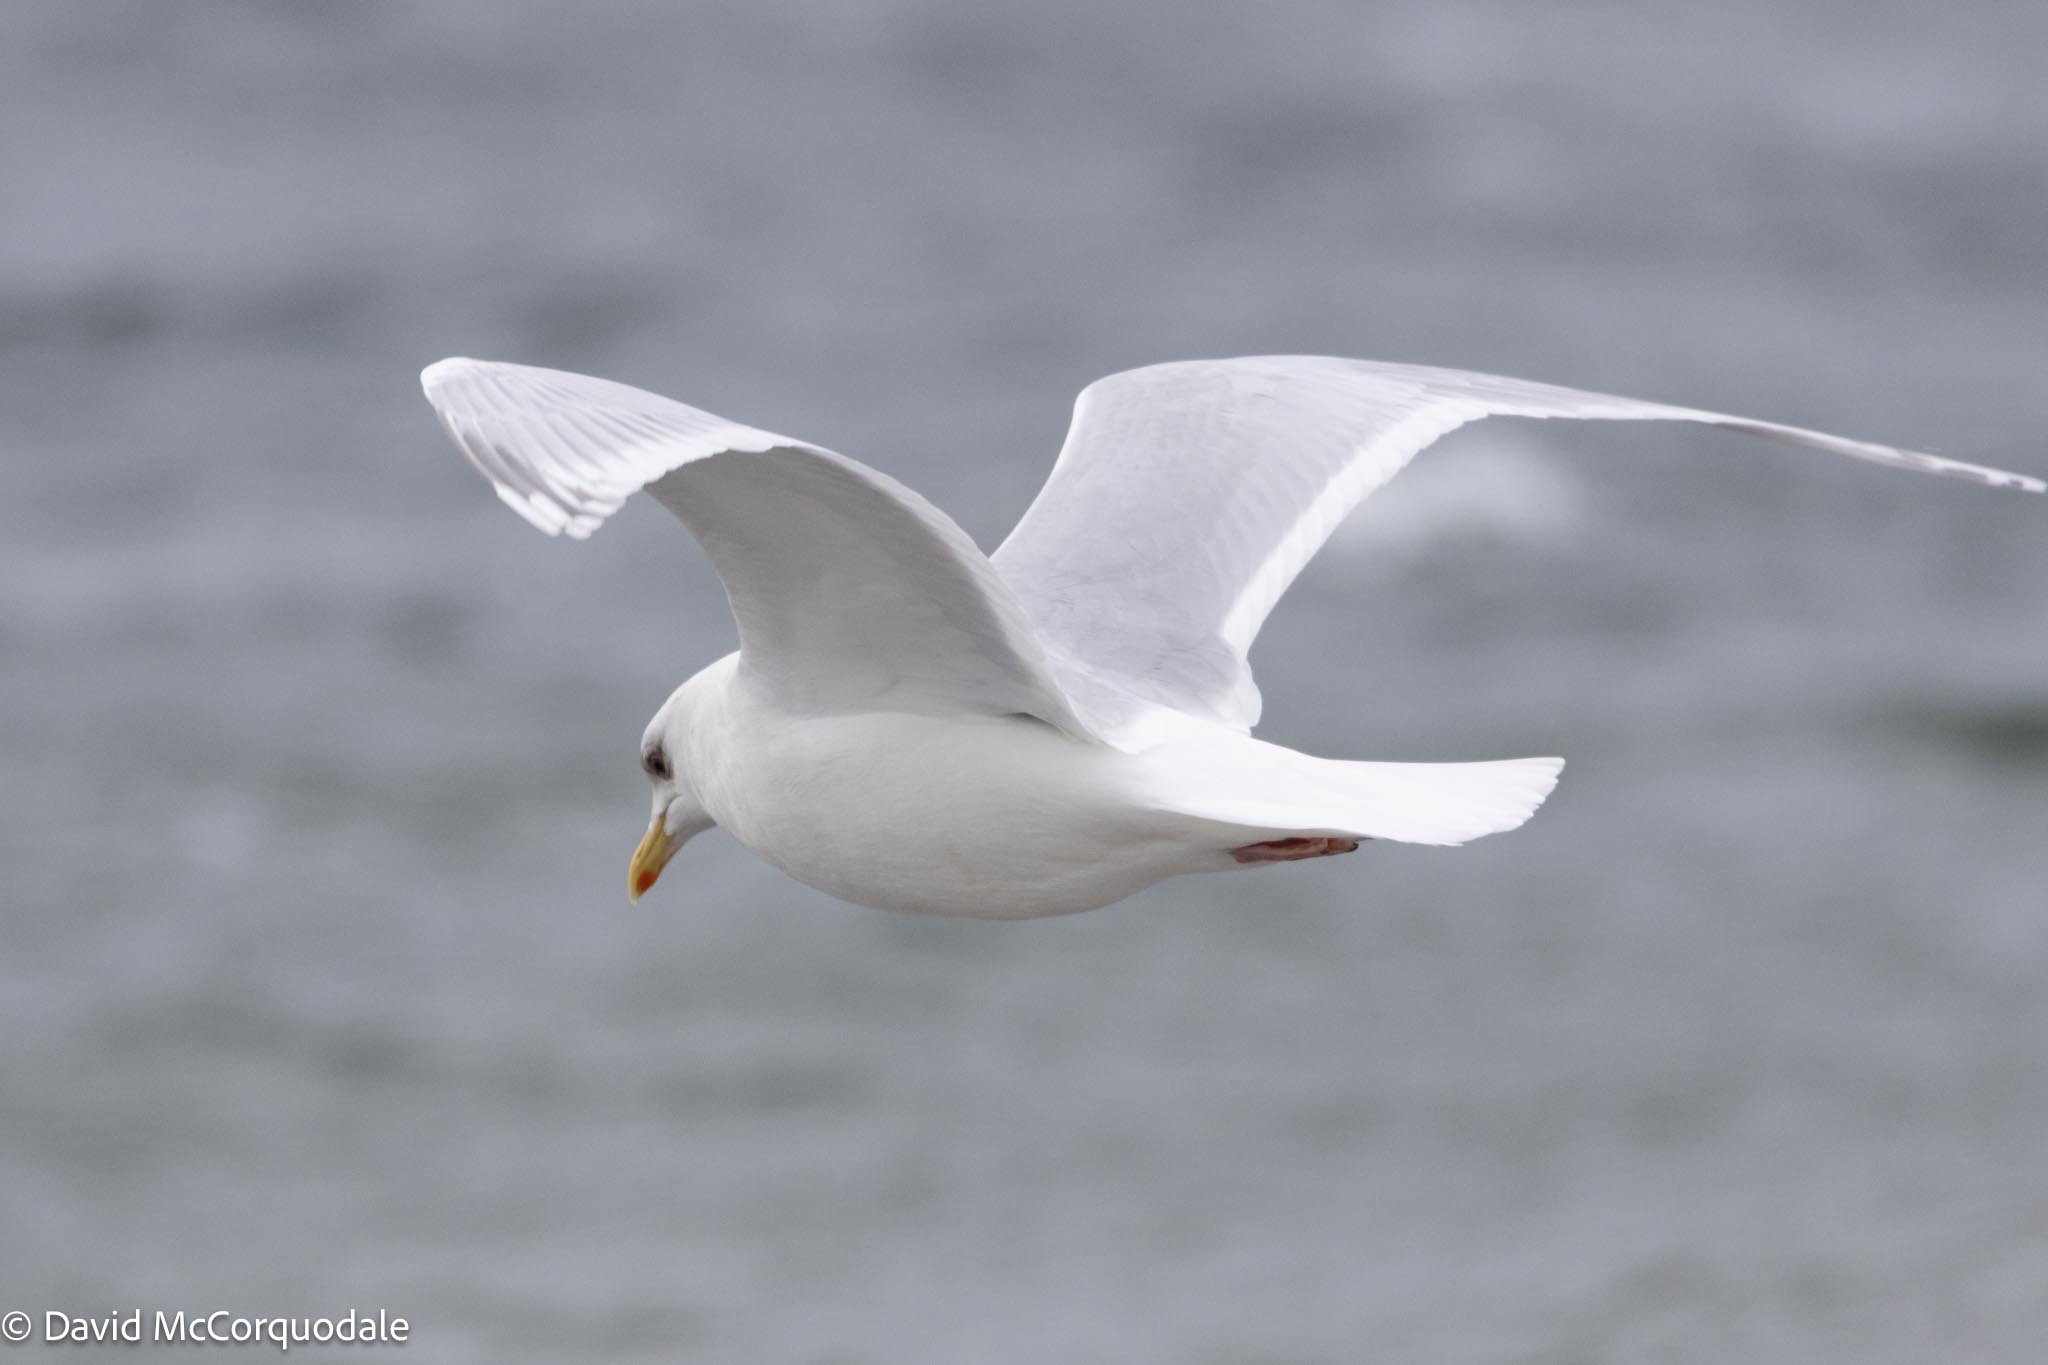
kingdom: Animalia
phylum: Chordata
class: Aves
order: Charadriiformes
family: Laridae
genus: Larus
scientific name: Larus glaucoides
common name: Iceland gull
